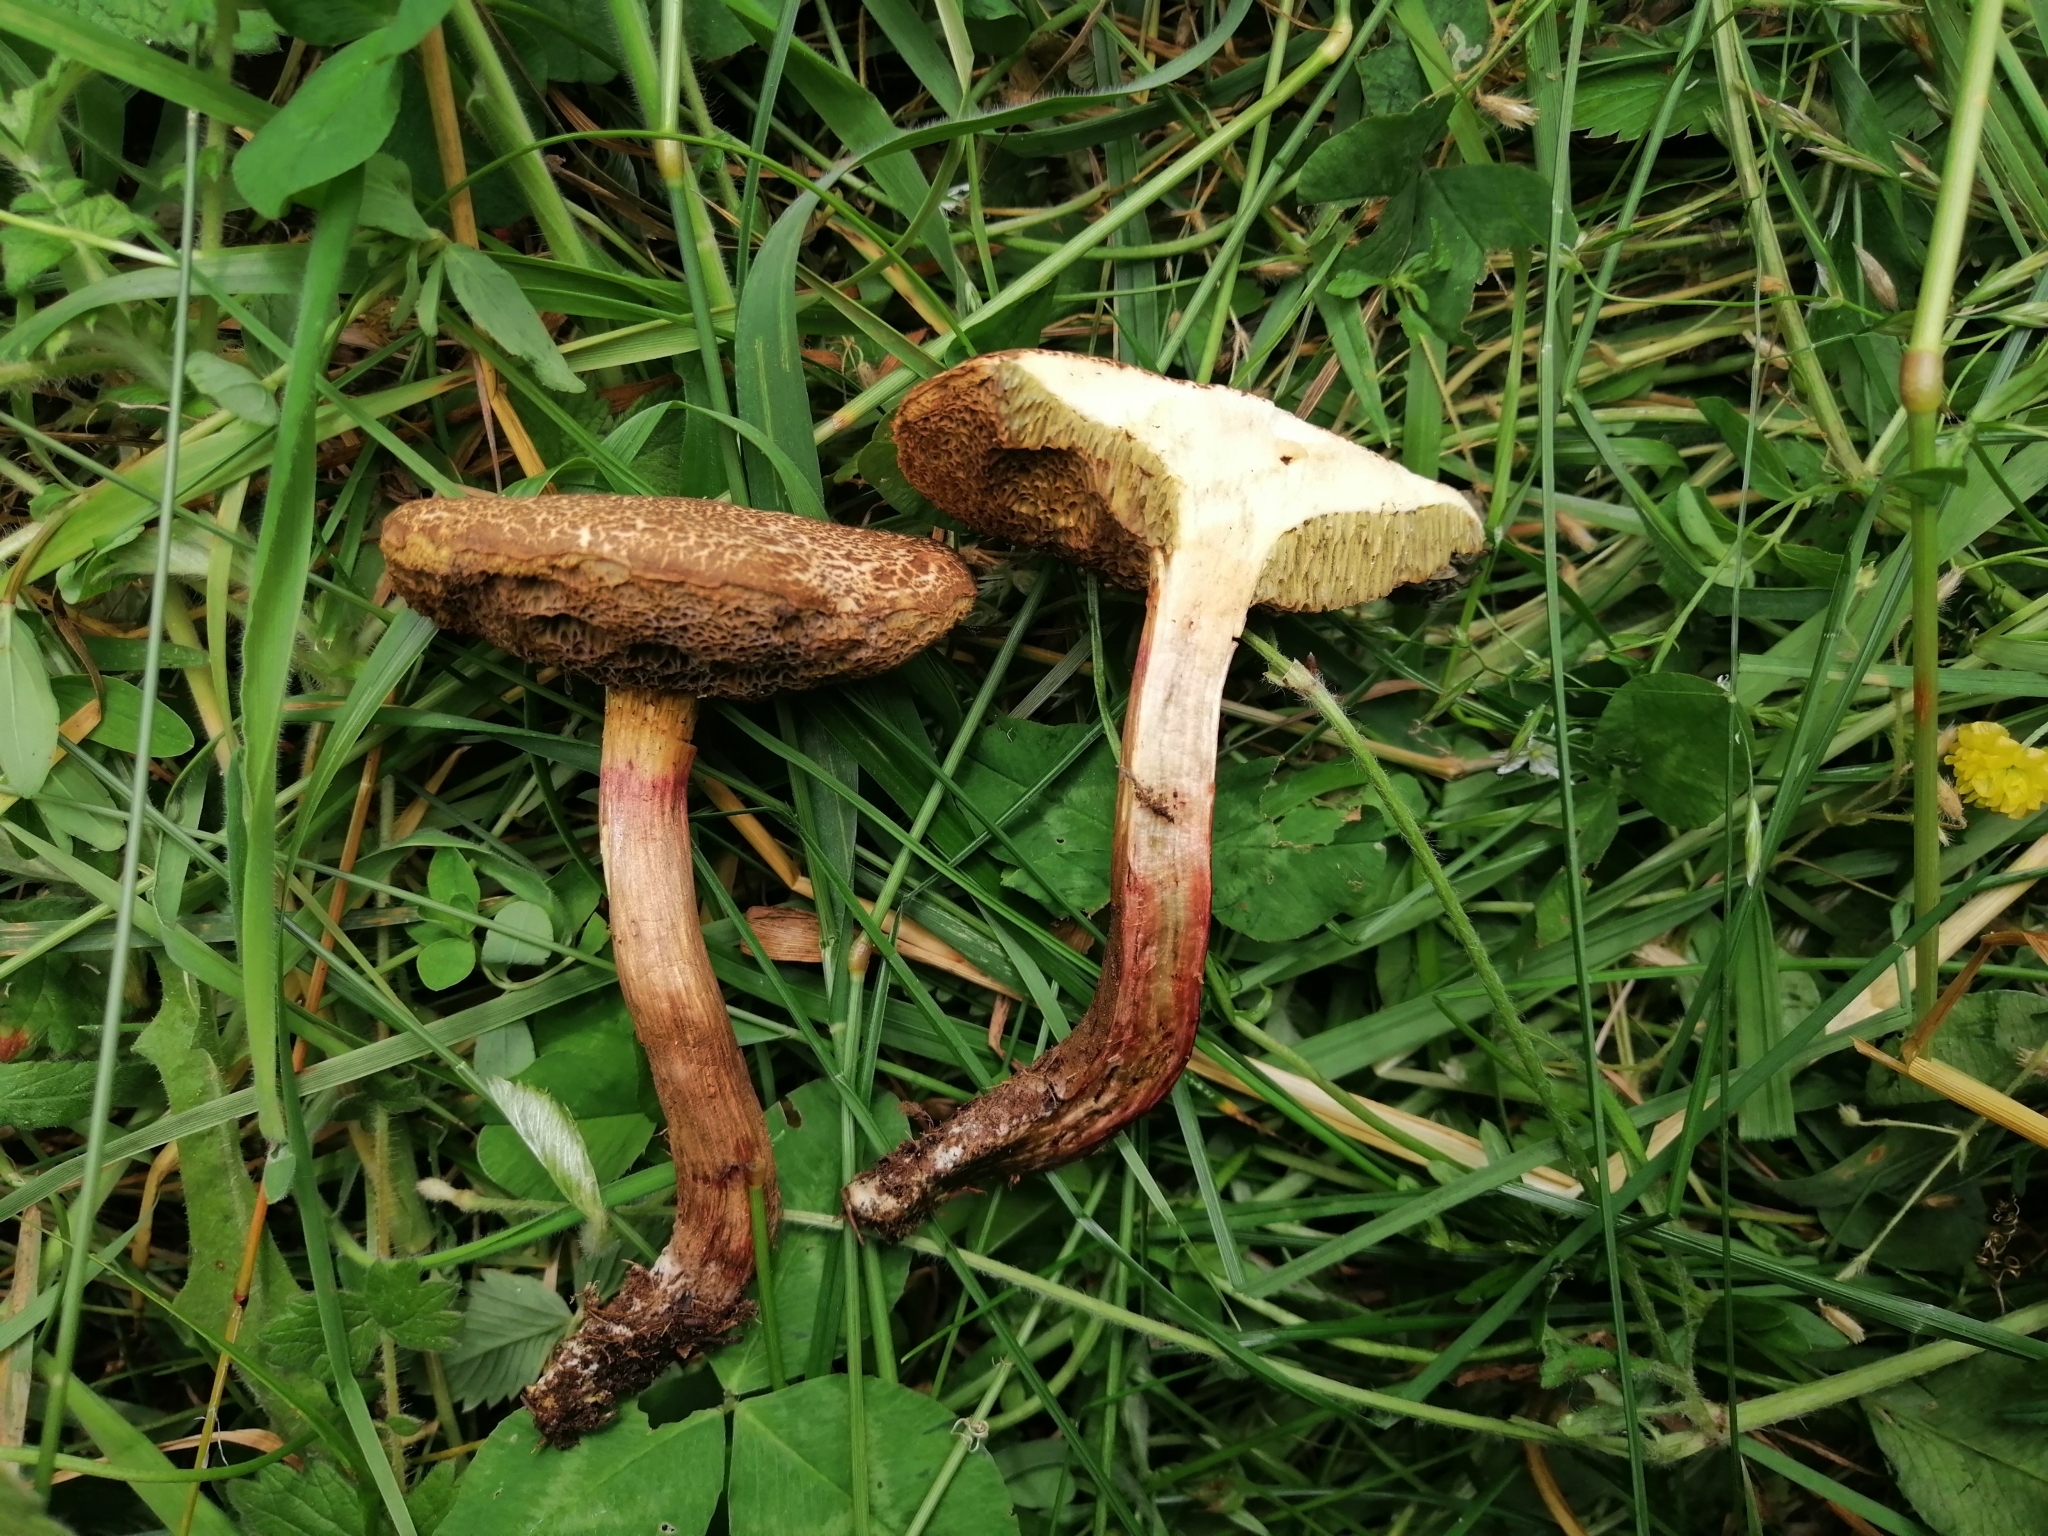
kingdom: Fungi
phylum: Basidiomycota
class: Agaricomycetes
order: Boletales
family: Boletaceae
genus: Xerocomellus
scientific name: Xerocomellus cisalpinus
